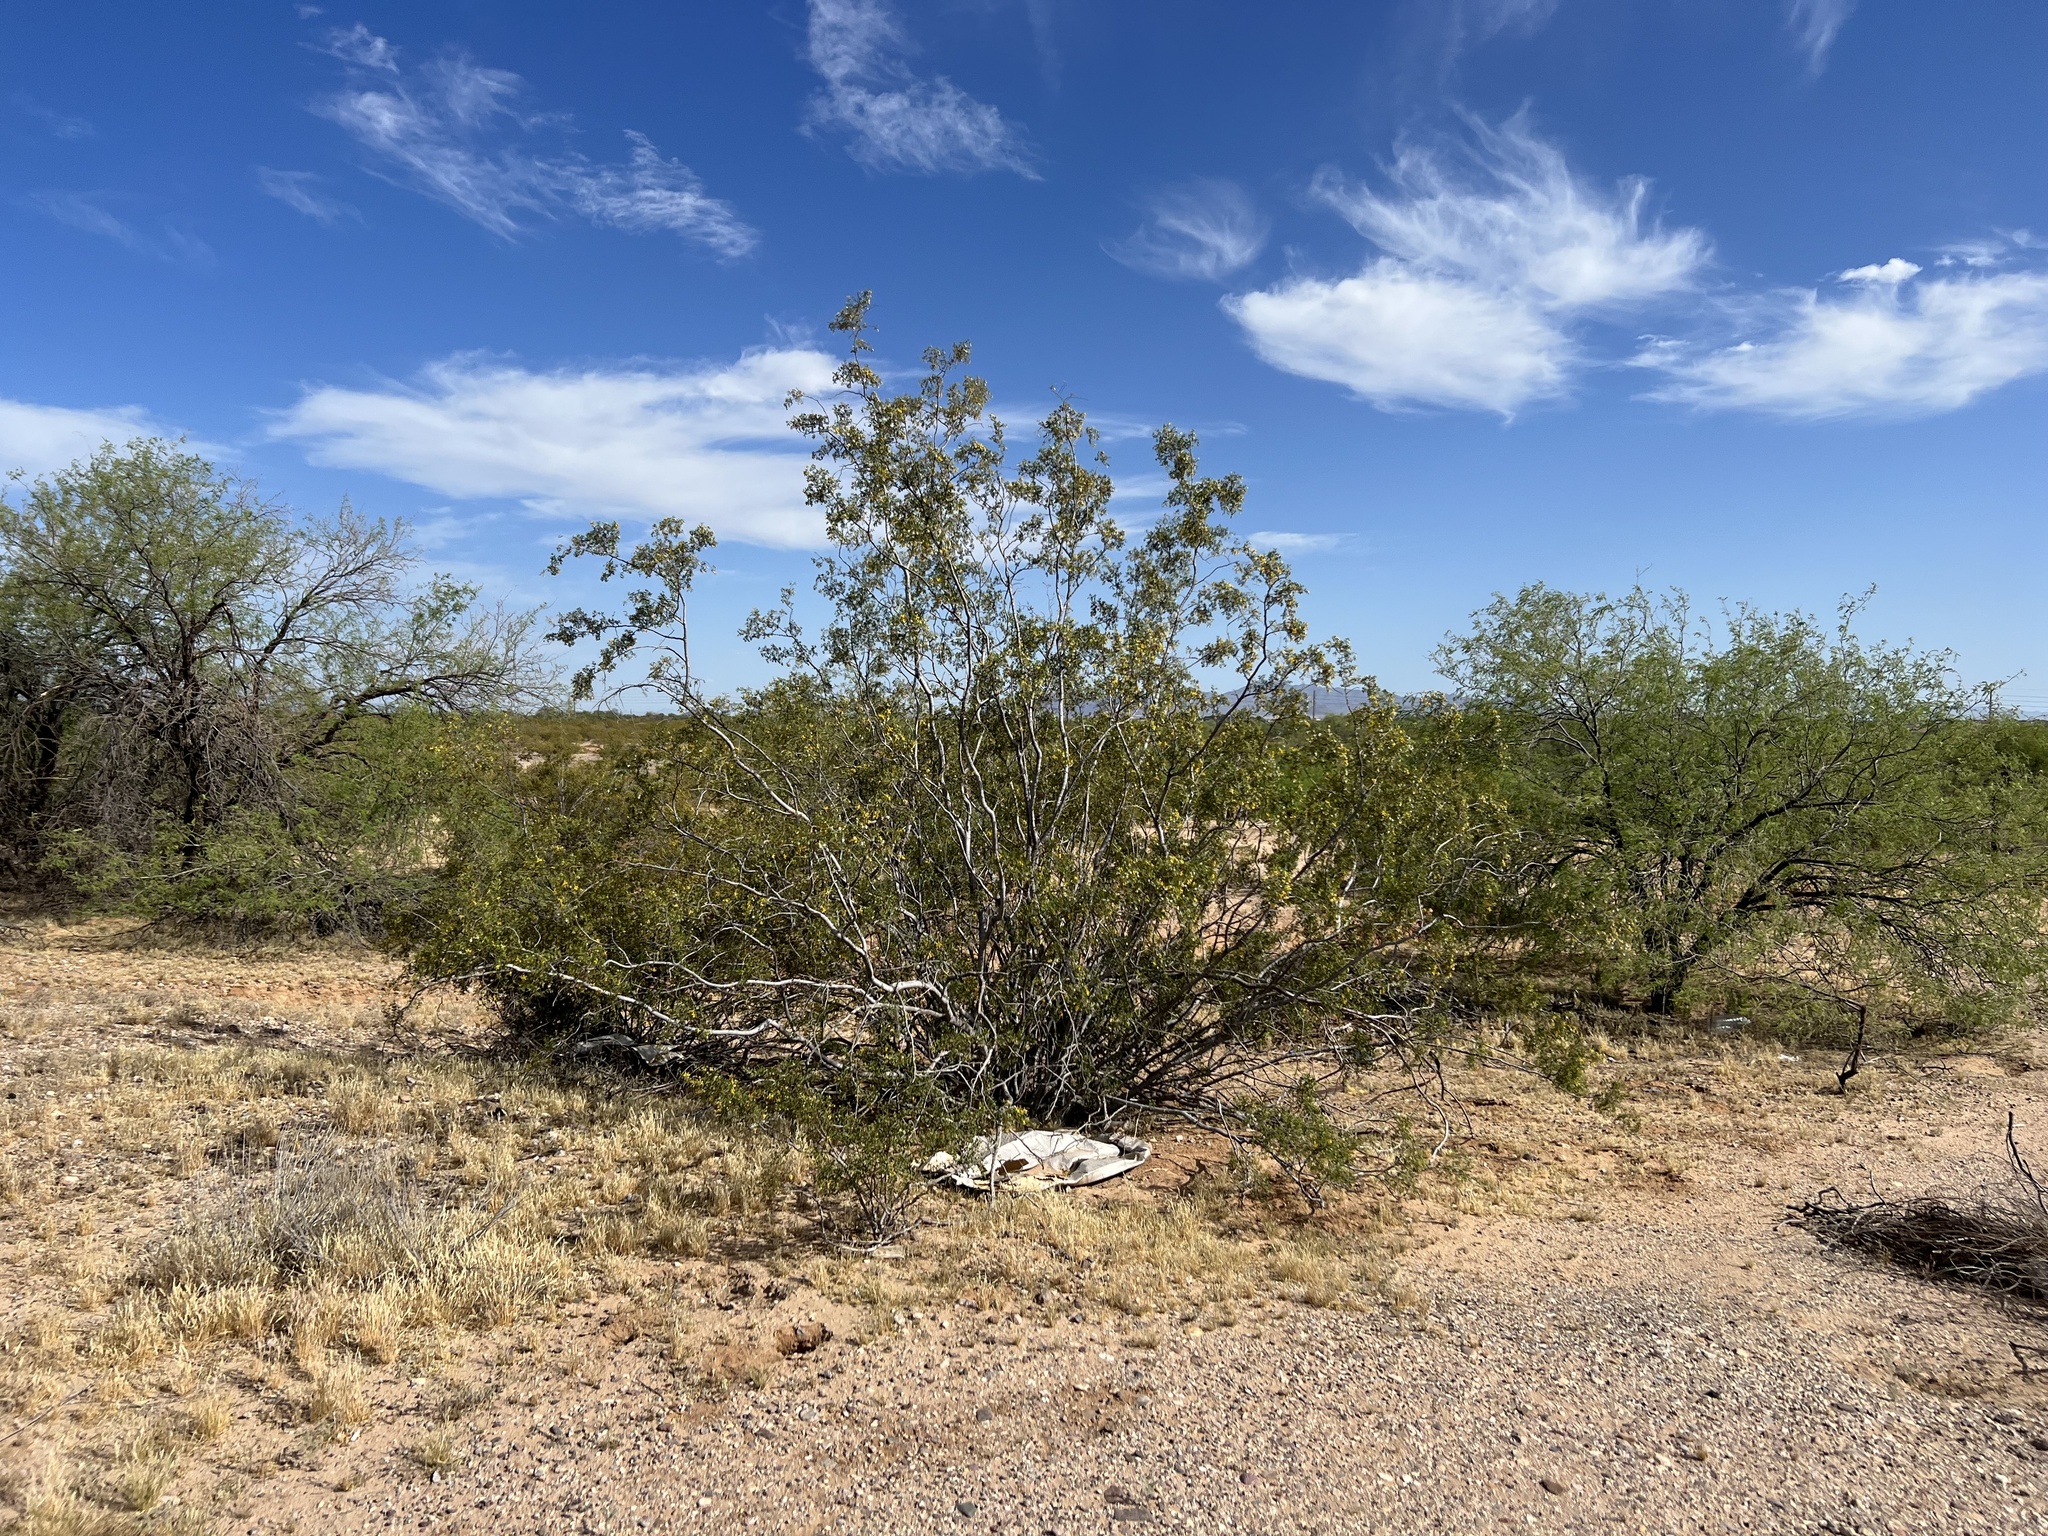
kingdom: Plantae
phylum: Tracheophyta
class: Magnoliopsida
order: Zygophyllales
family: Zygophyllaceae
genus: Larrea
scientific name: Larrea tridentata
